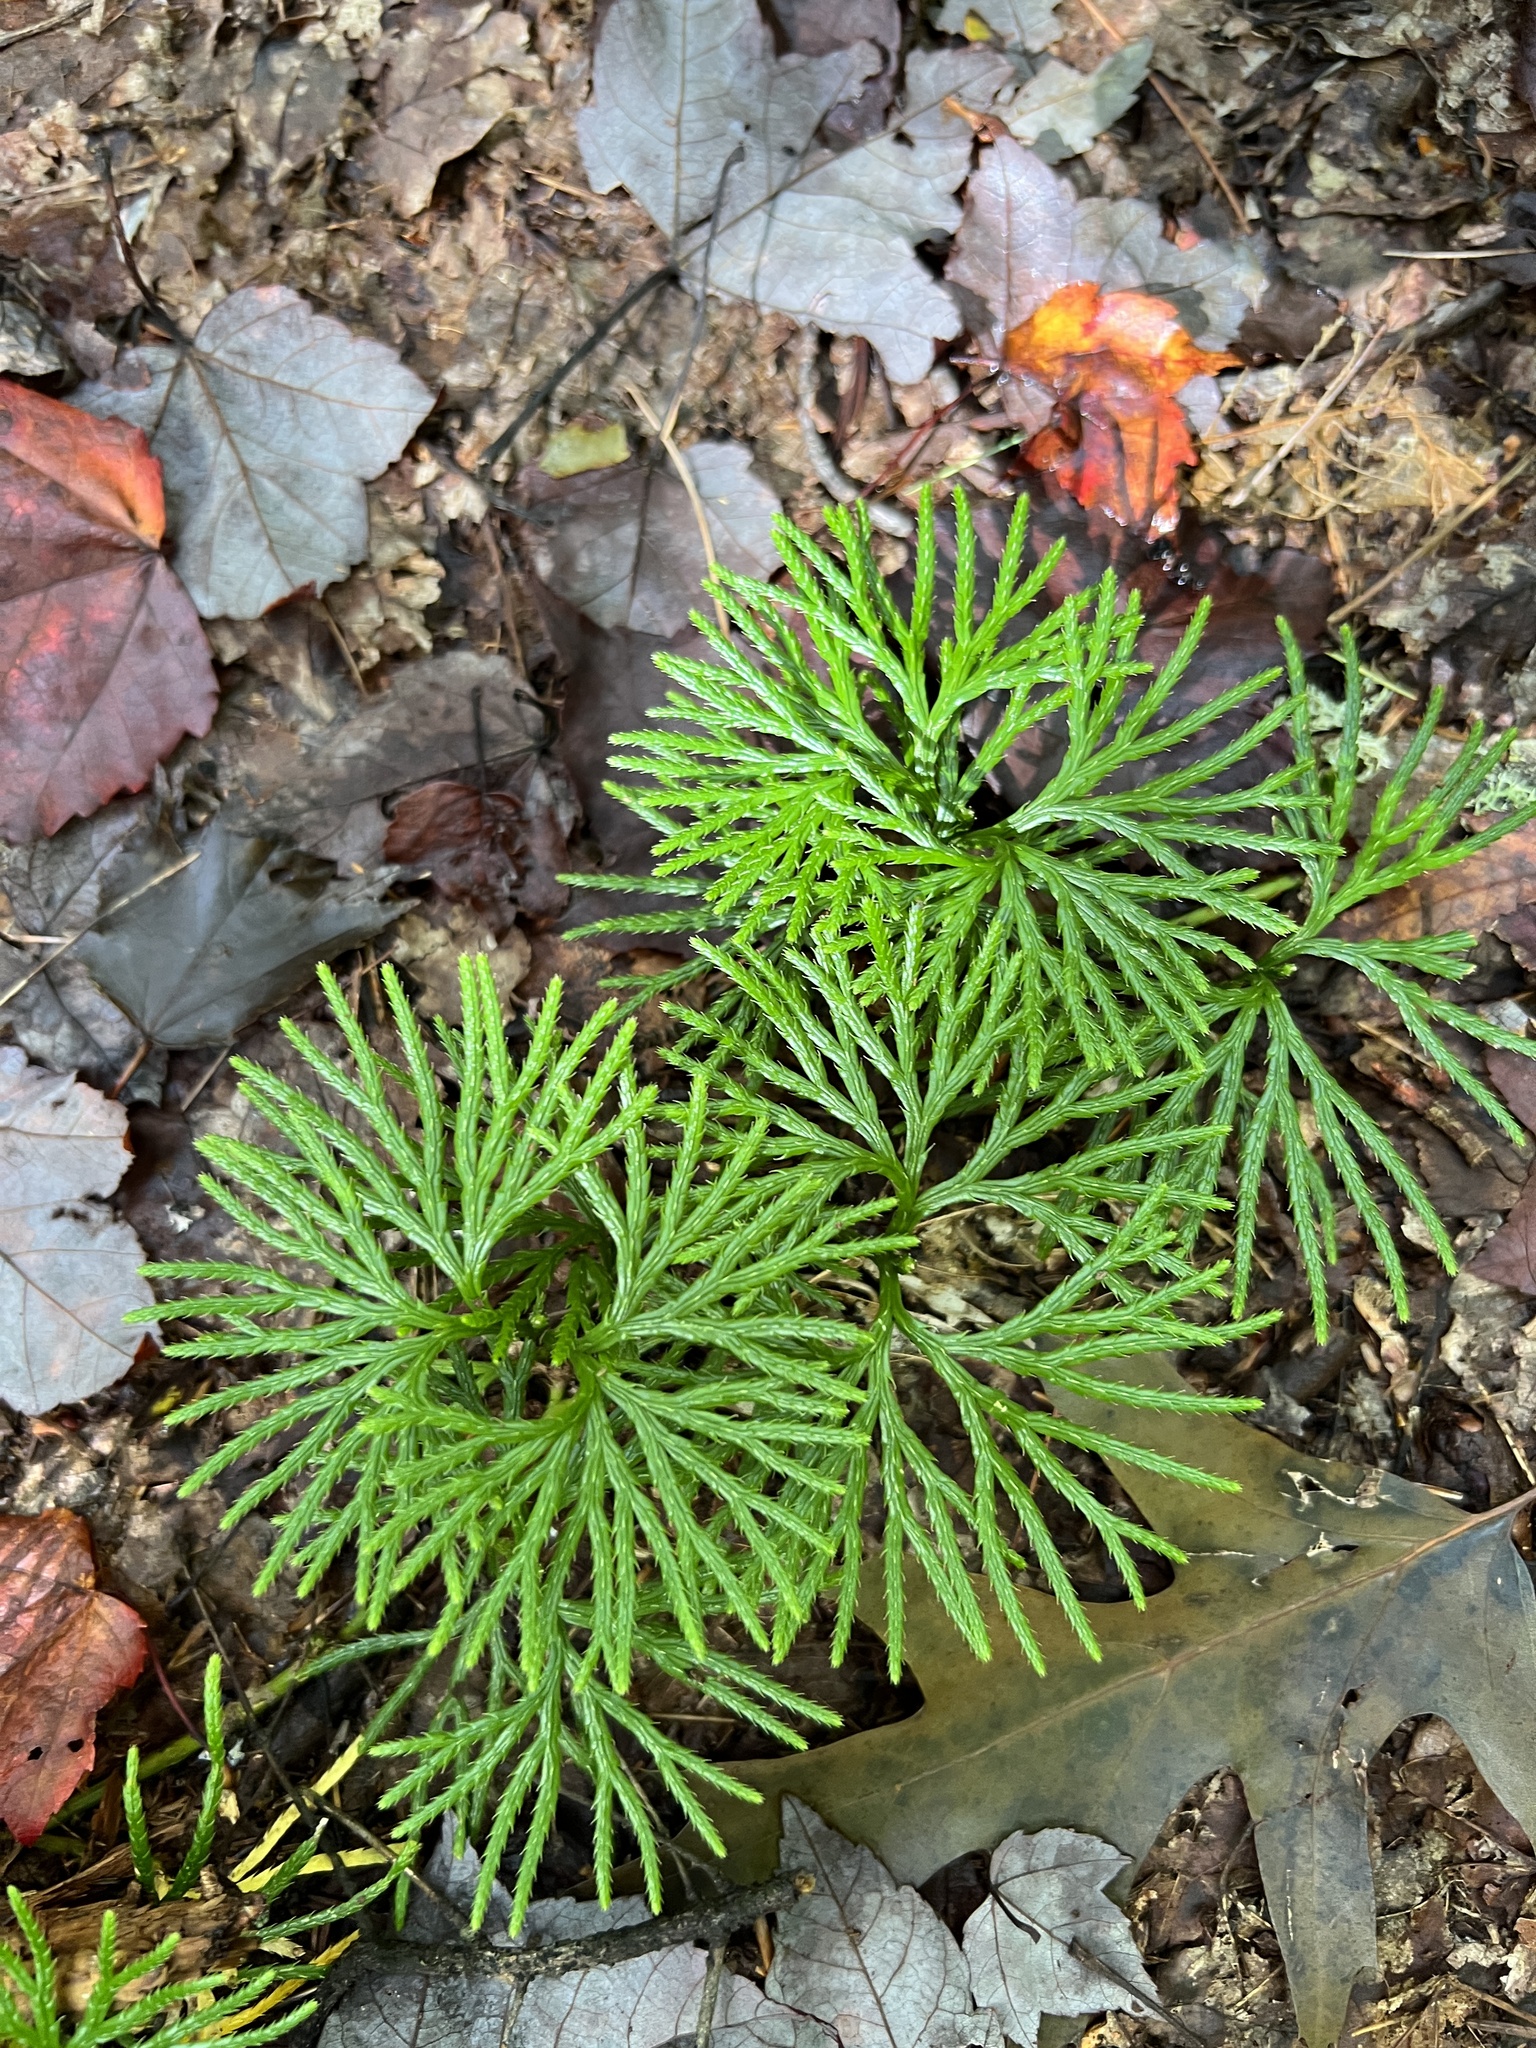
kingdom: Plantae
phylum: Tracheophyta
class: Lycopodiopsida
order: Lycopodiales
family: Lycopodiaceae
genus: Diphasiastrum
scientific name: Diphasiastrum digitatum
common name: Southern running-pine
